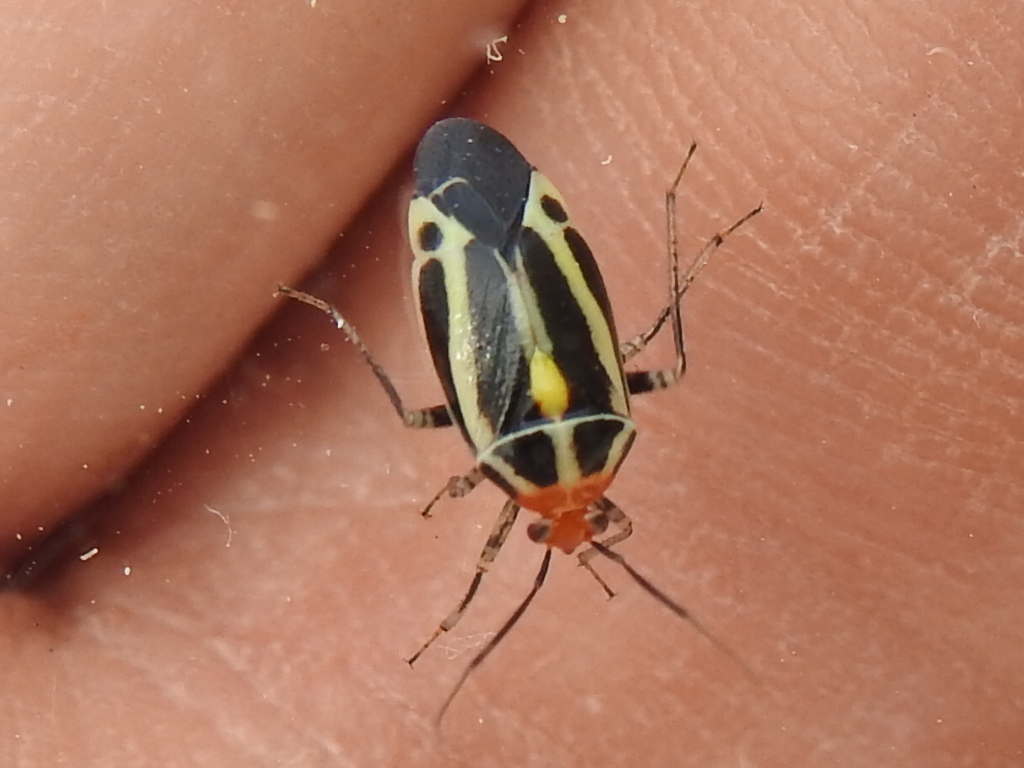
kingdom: Animalia
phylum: Arthropoda
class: Insecta
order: Hemiptera
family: Miridae
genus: Poecilocapsus
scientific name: Poecilocapsus lineatus
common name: Four-lined plant bug
